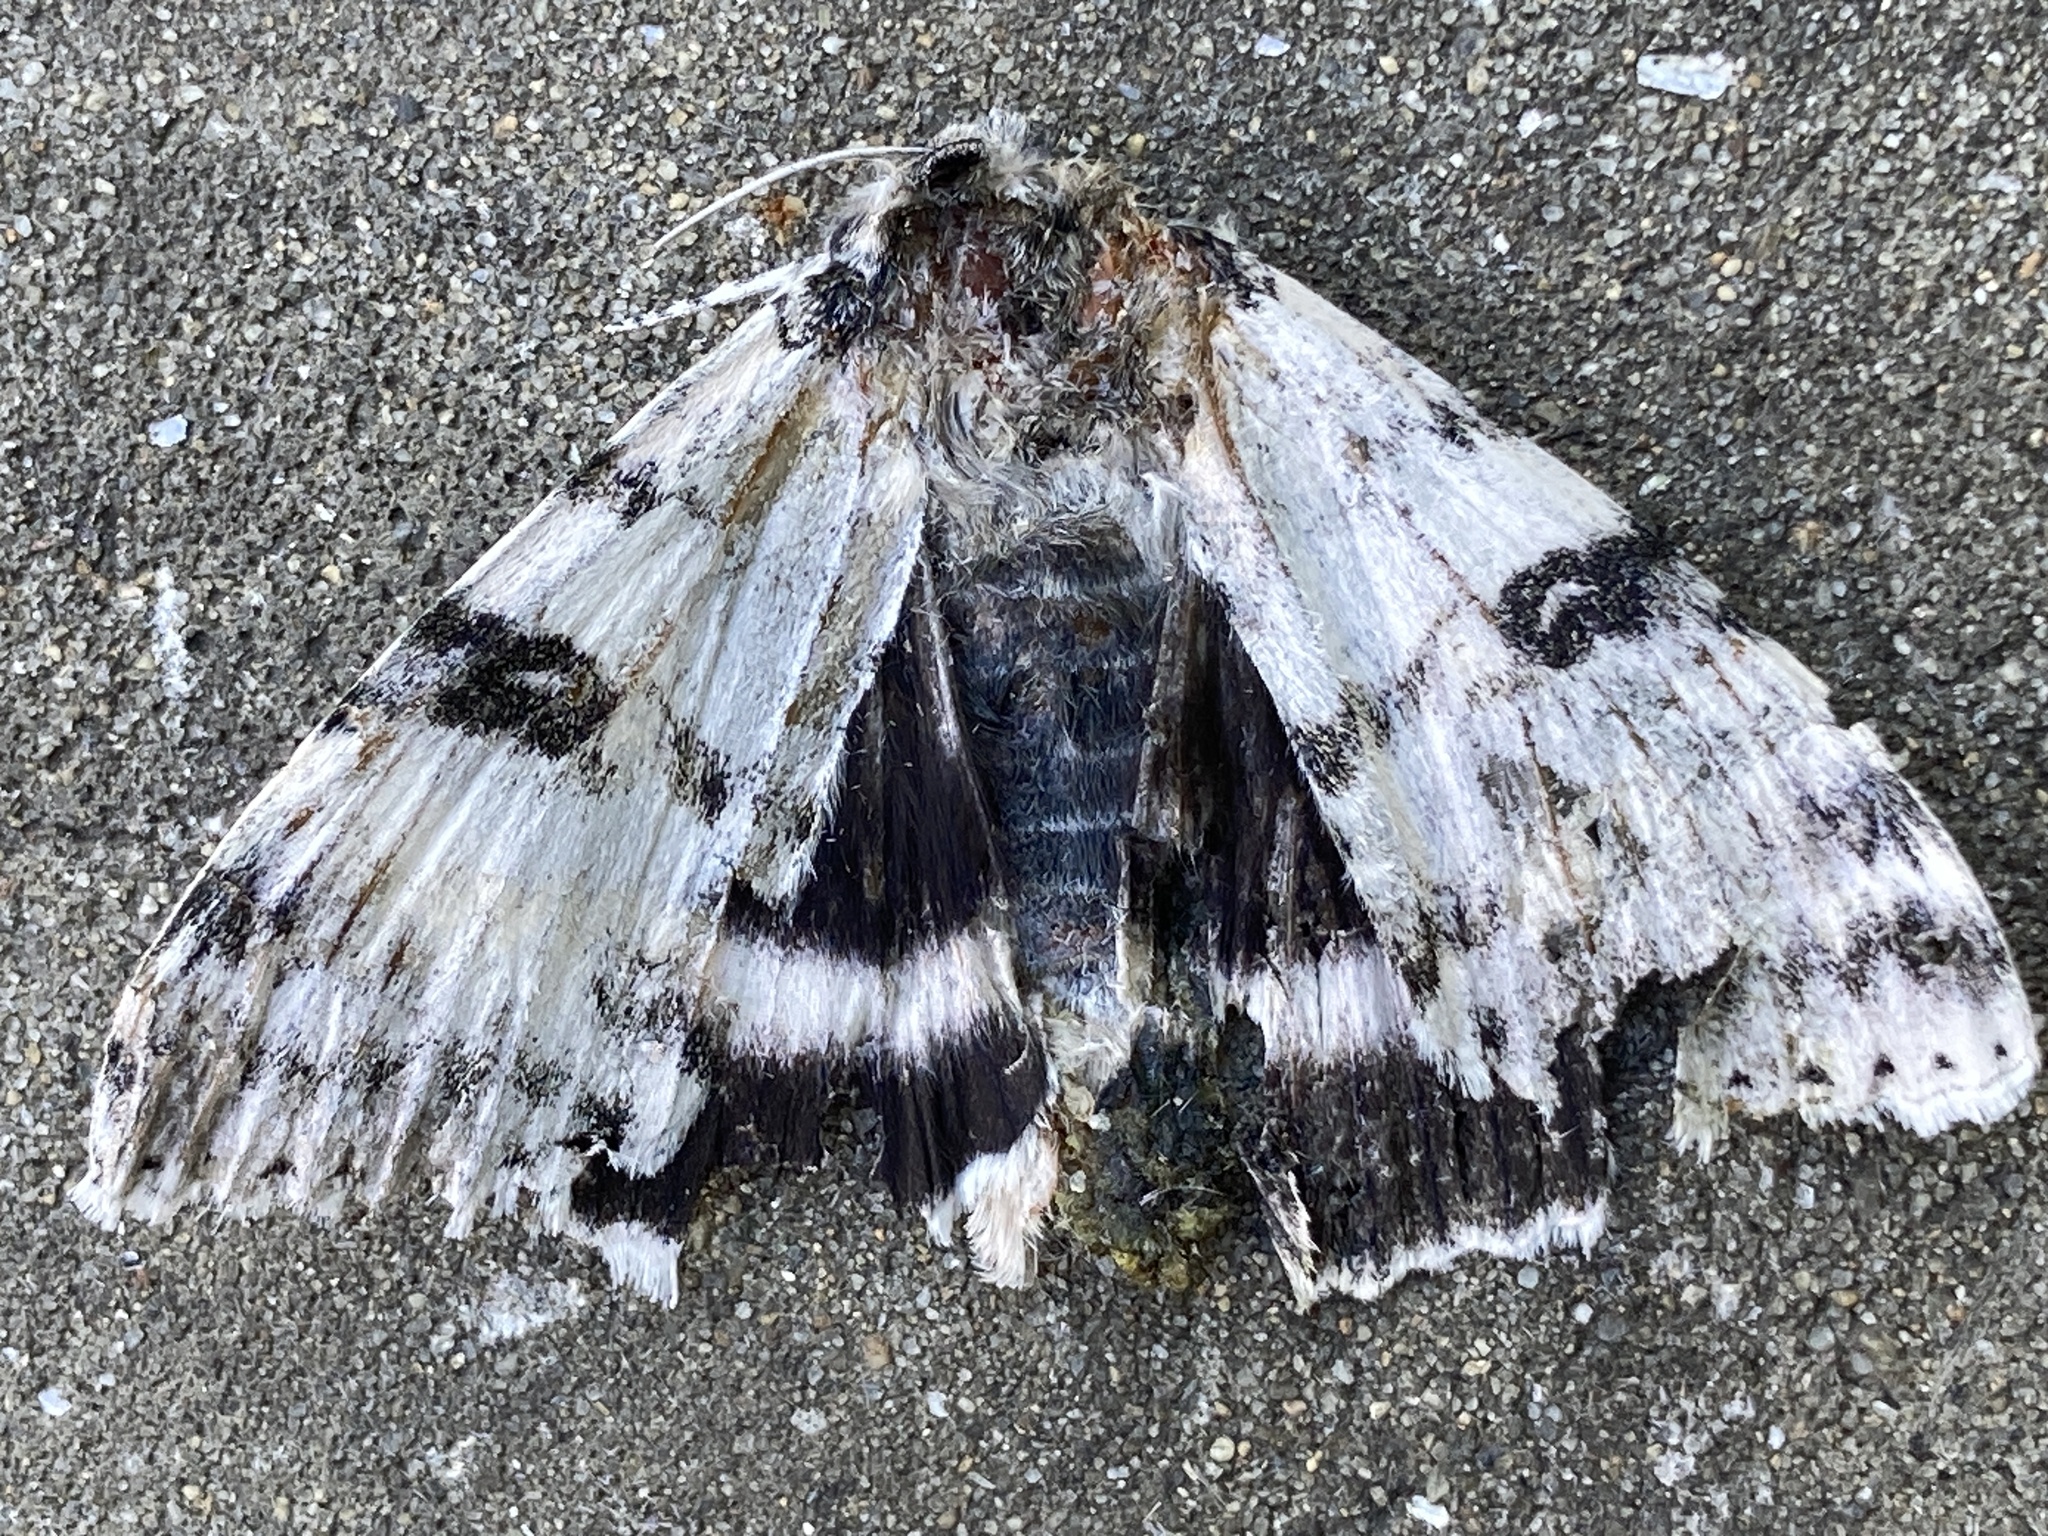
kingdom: Animalia
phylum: Arthropoda
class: Insecta
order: Lepidoptera
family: Erebidae
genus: Catocala
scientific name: Catocala relicta
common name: White underwing
